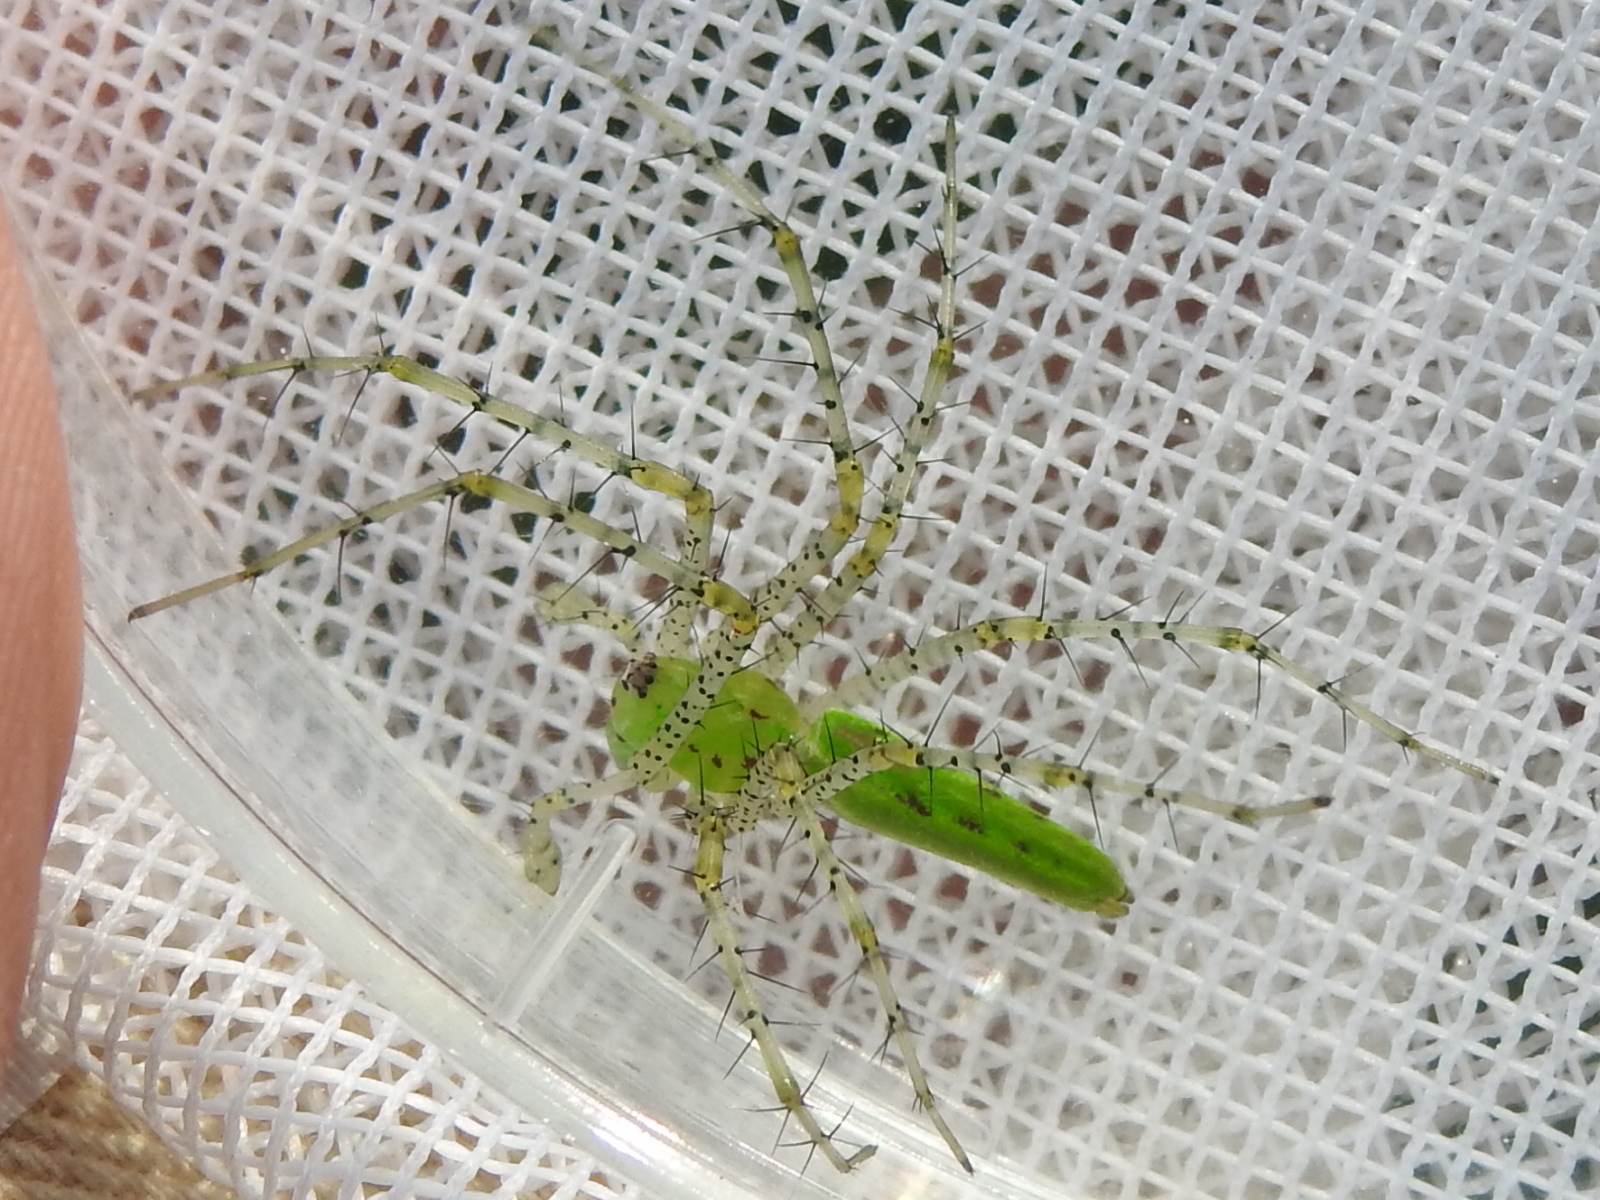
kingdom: Animalia
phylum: Arthropoda
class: Arachnida
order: Araneae
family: Oxyopidae
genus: Peucetia
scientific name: Peucetia viridans
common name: Lynx spiders
